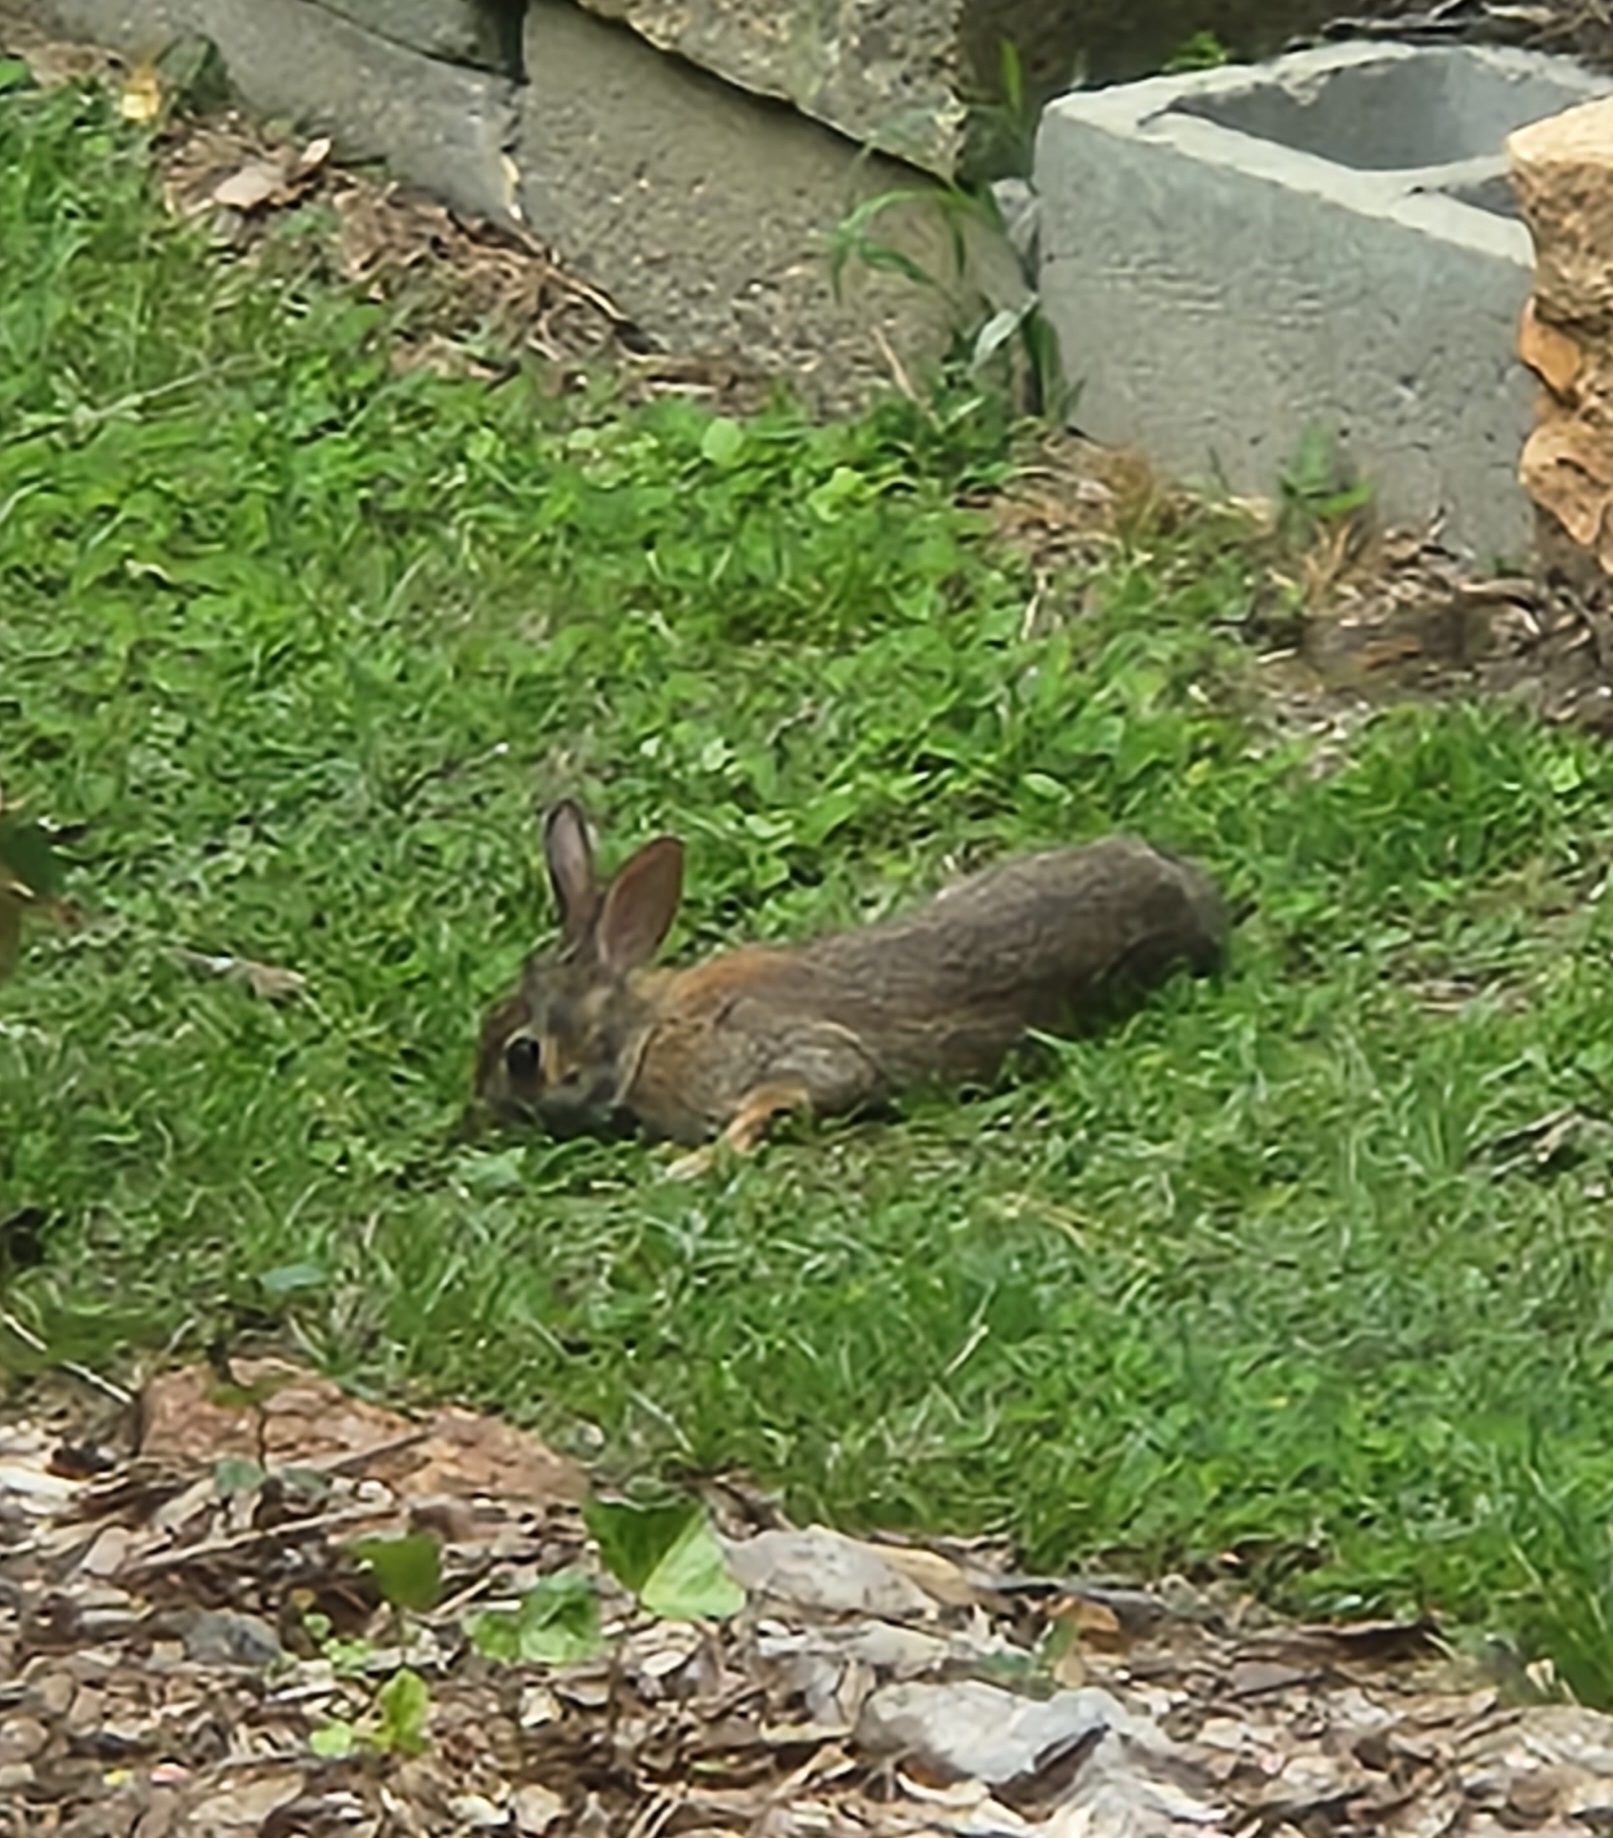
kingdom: Animalia
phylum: Chordata
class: Mammalia
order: Lagomorpha
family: Leporidae
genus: Sylvilagus
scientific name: Sylvilagus floridanus
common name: Eastern cottontail
